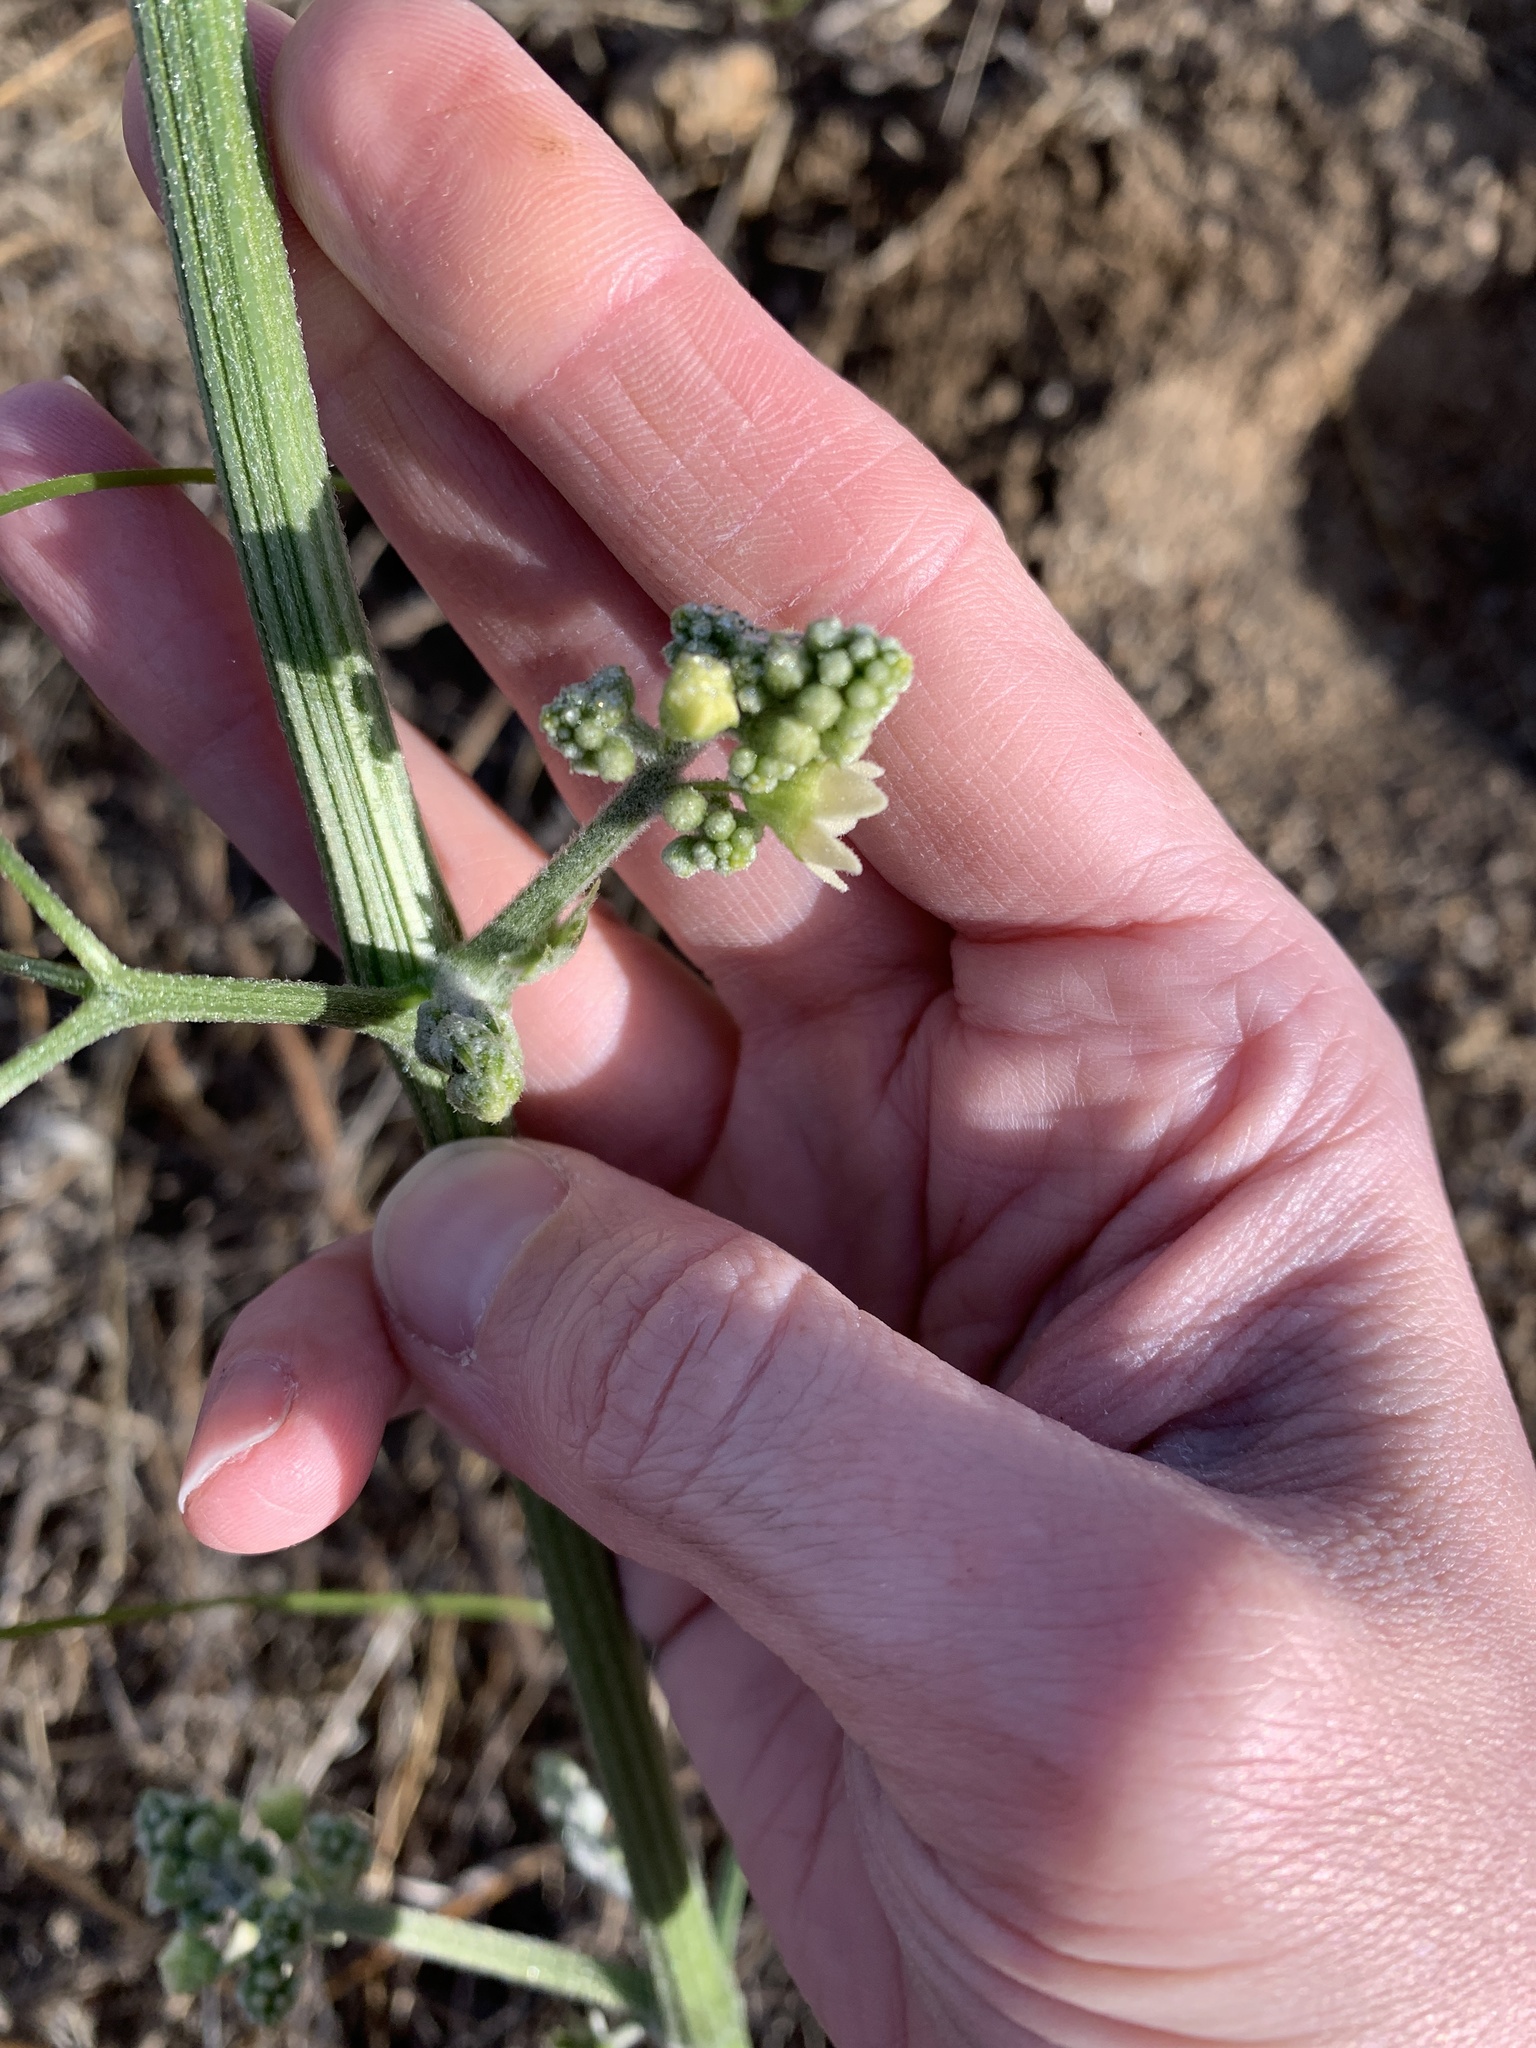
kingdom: Plantae
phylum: Tracheophyta
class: Magnoliopsida
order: Cucurbitales
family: Cucurbitaceae
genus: Marah
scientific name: Marah macrocarpa
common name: Cucamonga manroot
